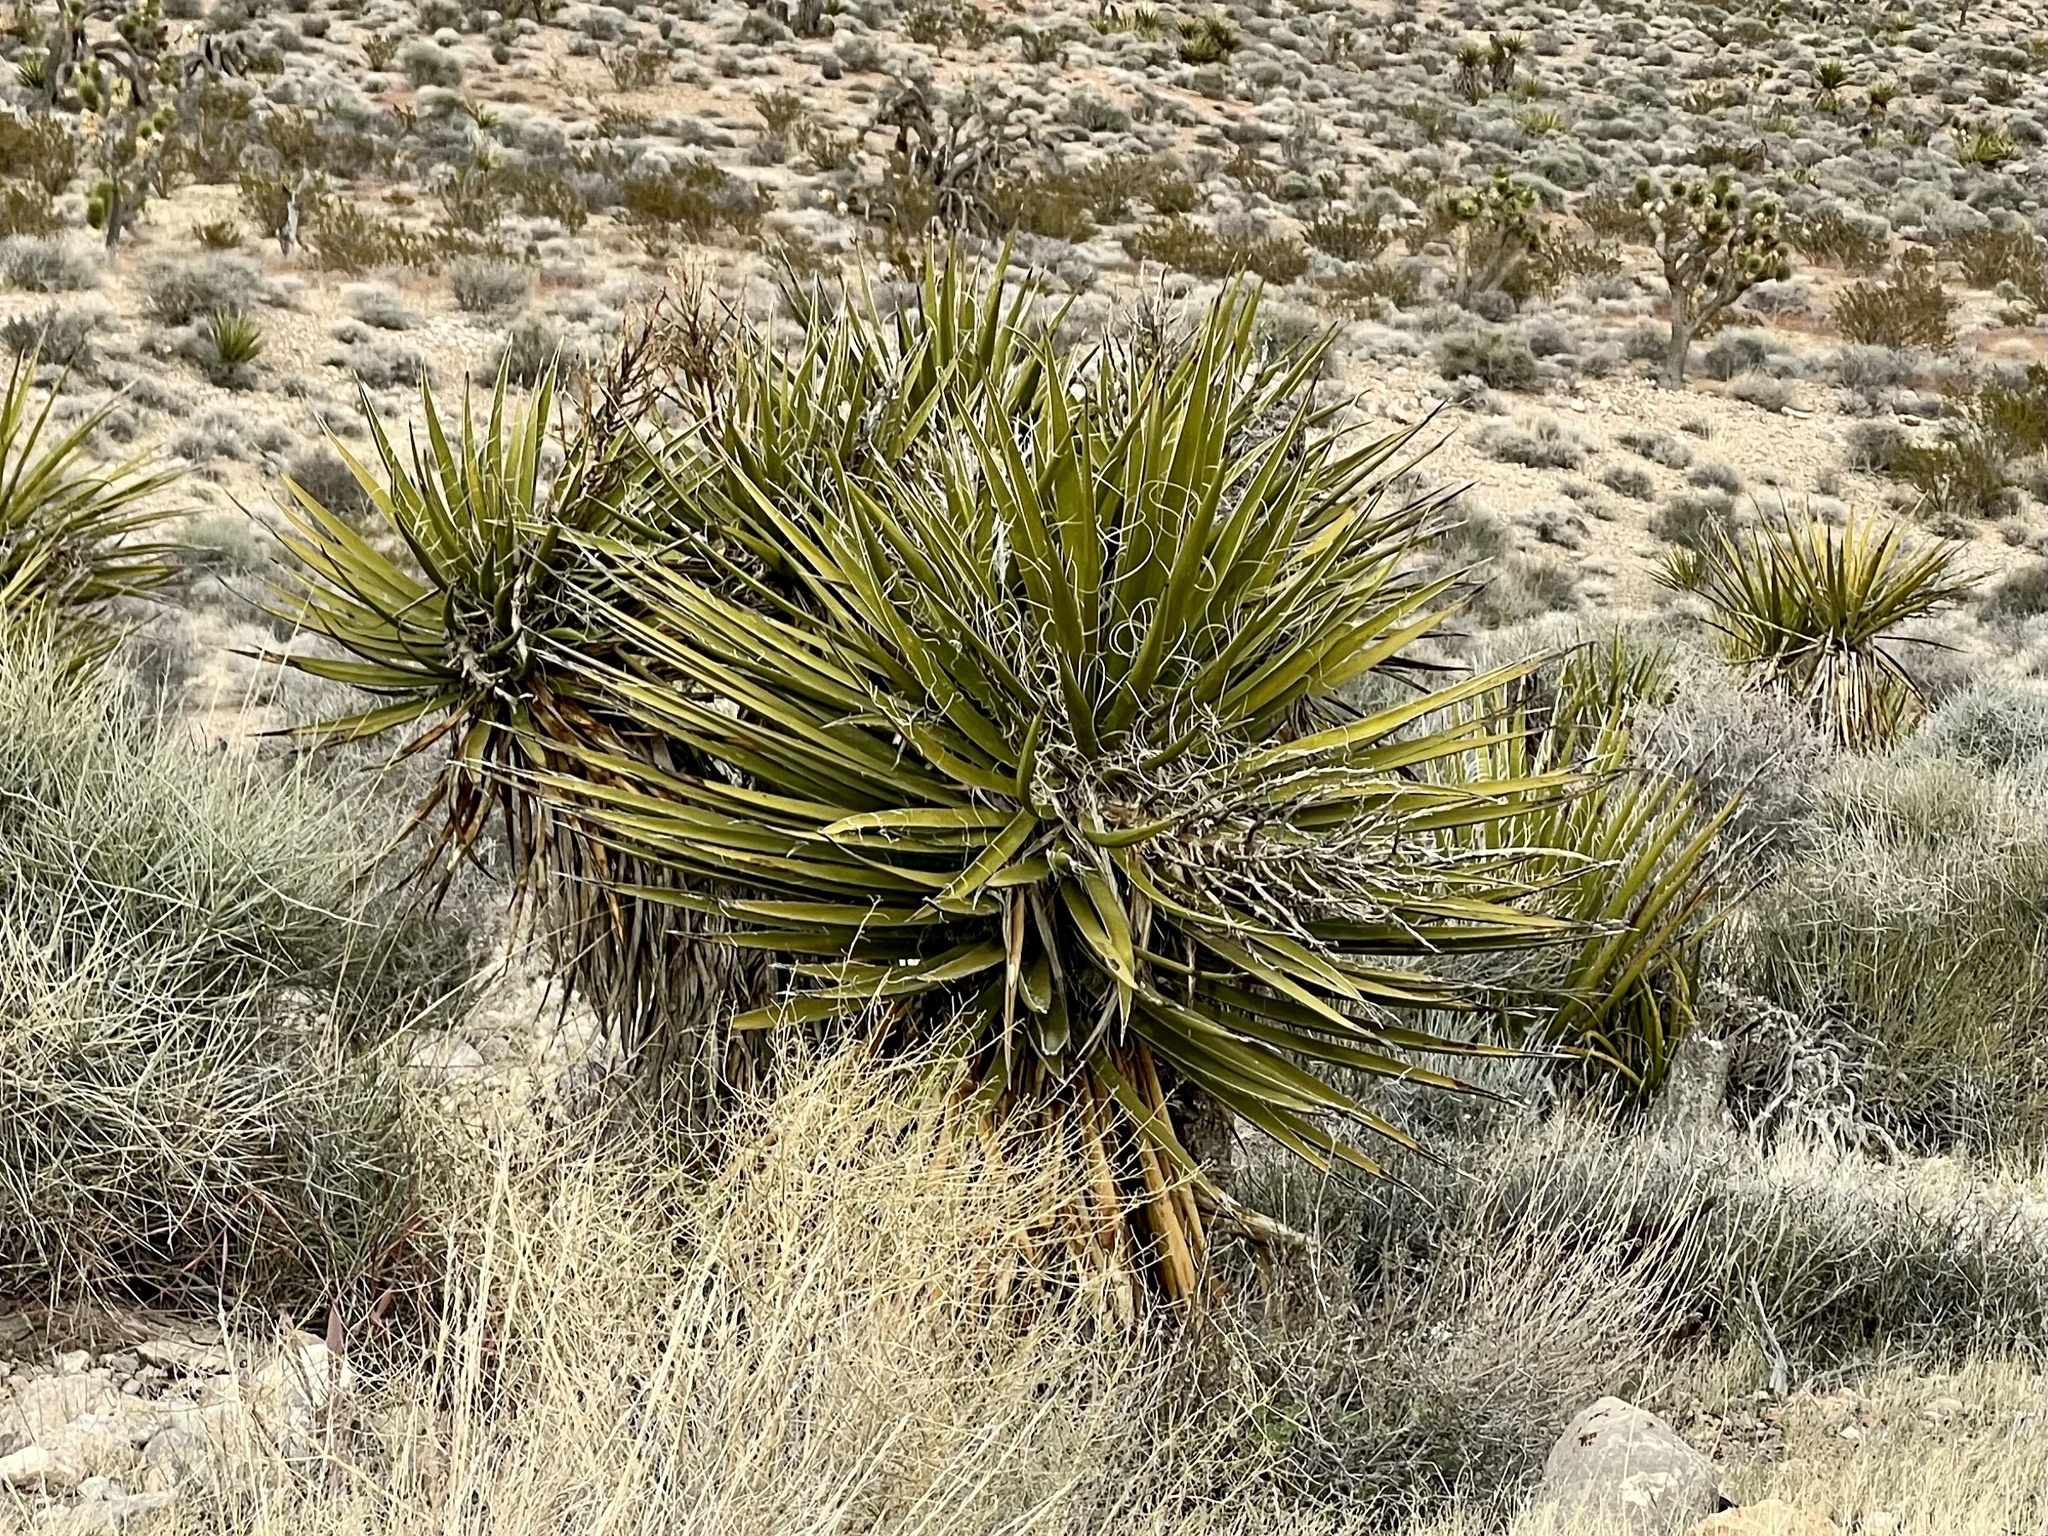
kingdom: Plantae
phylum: Tracheophyta
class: Liliopsida
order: Asparagales
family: Asparagaceae
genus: Yucca
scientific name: Yucca schidigera
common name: Mojave yucca
